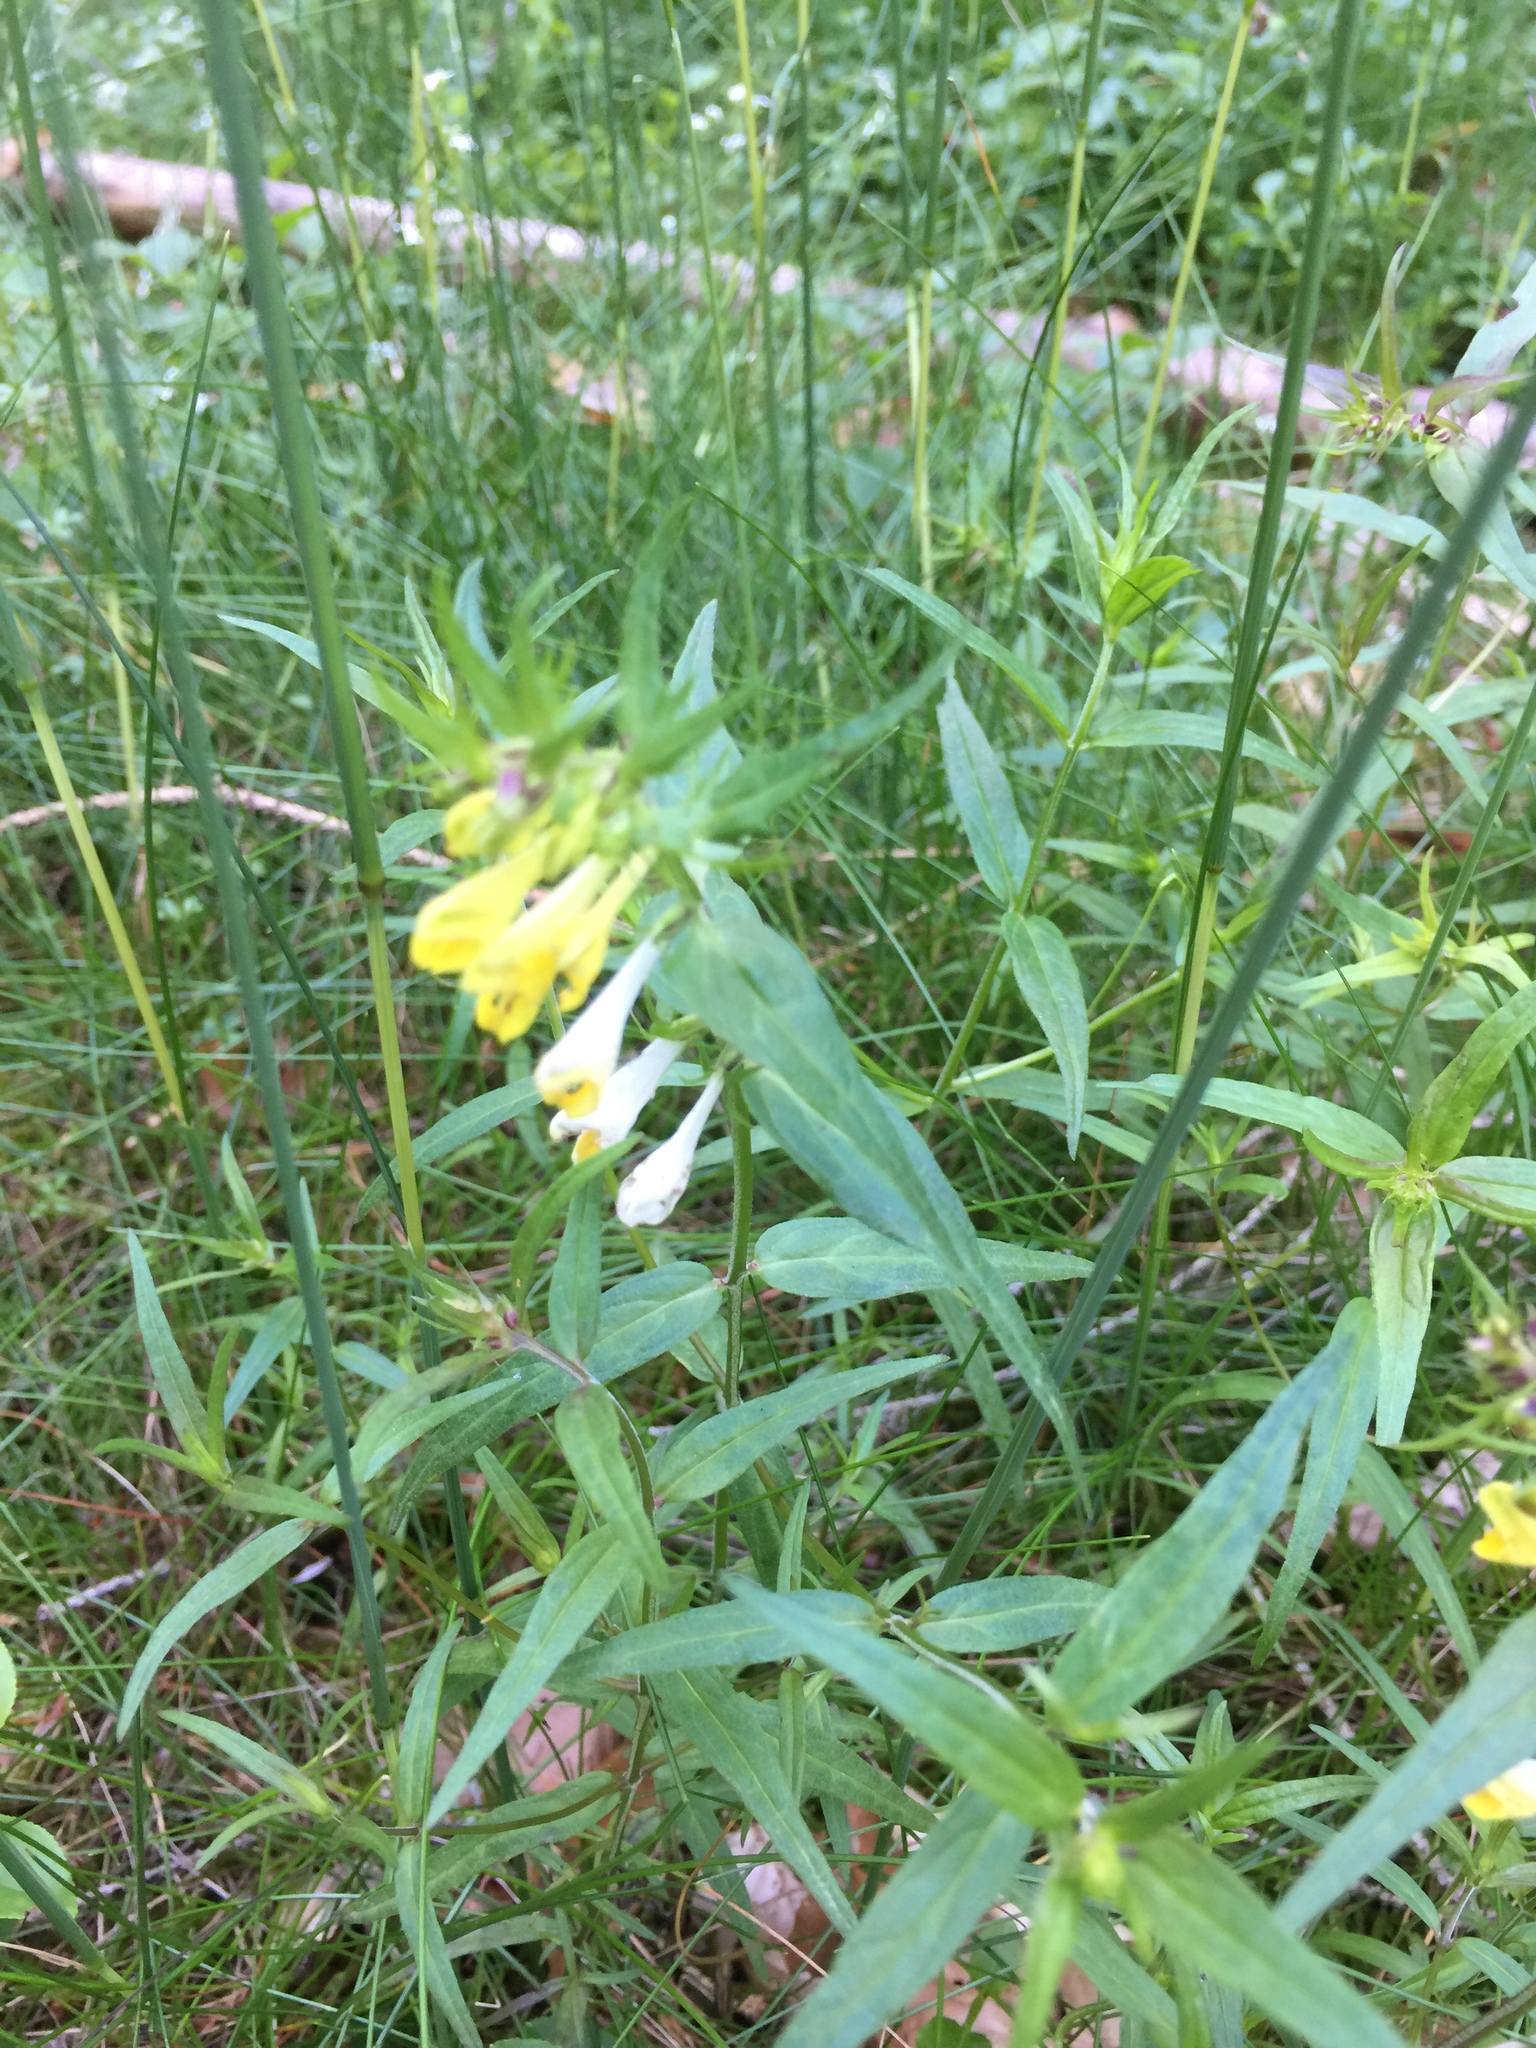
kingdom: Plantae
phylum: Tracheophyta
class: Magnoliopsida
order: Lamiales
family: Orobanchaceae
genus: Melampyrum
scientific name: Melampyrum pratense
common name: Common cow-wheat
